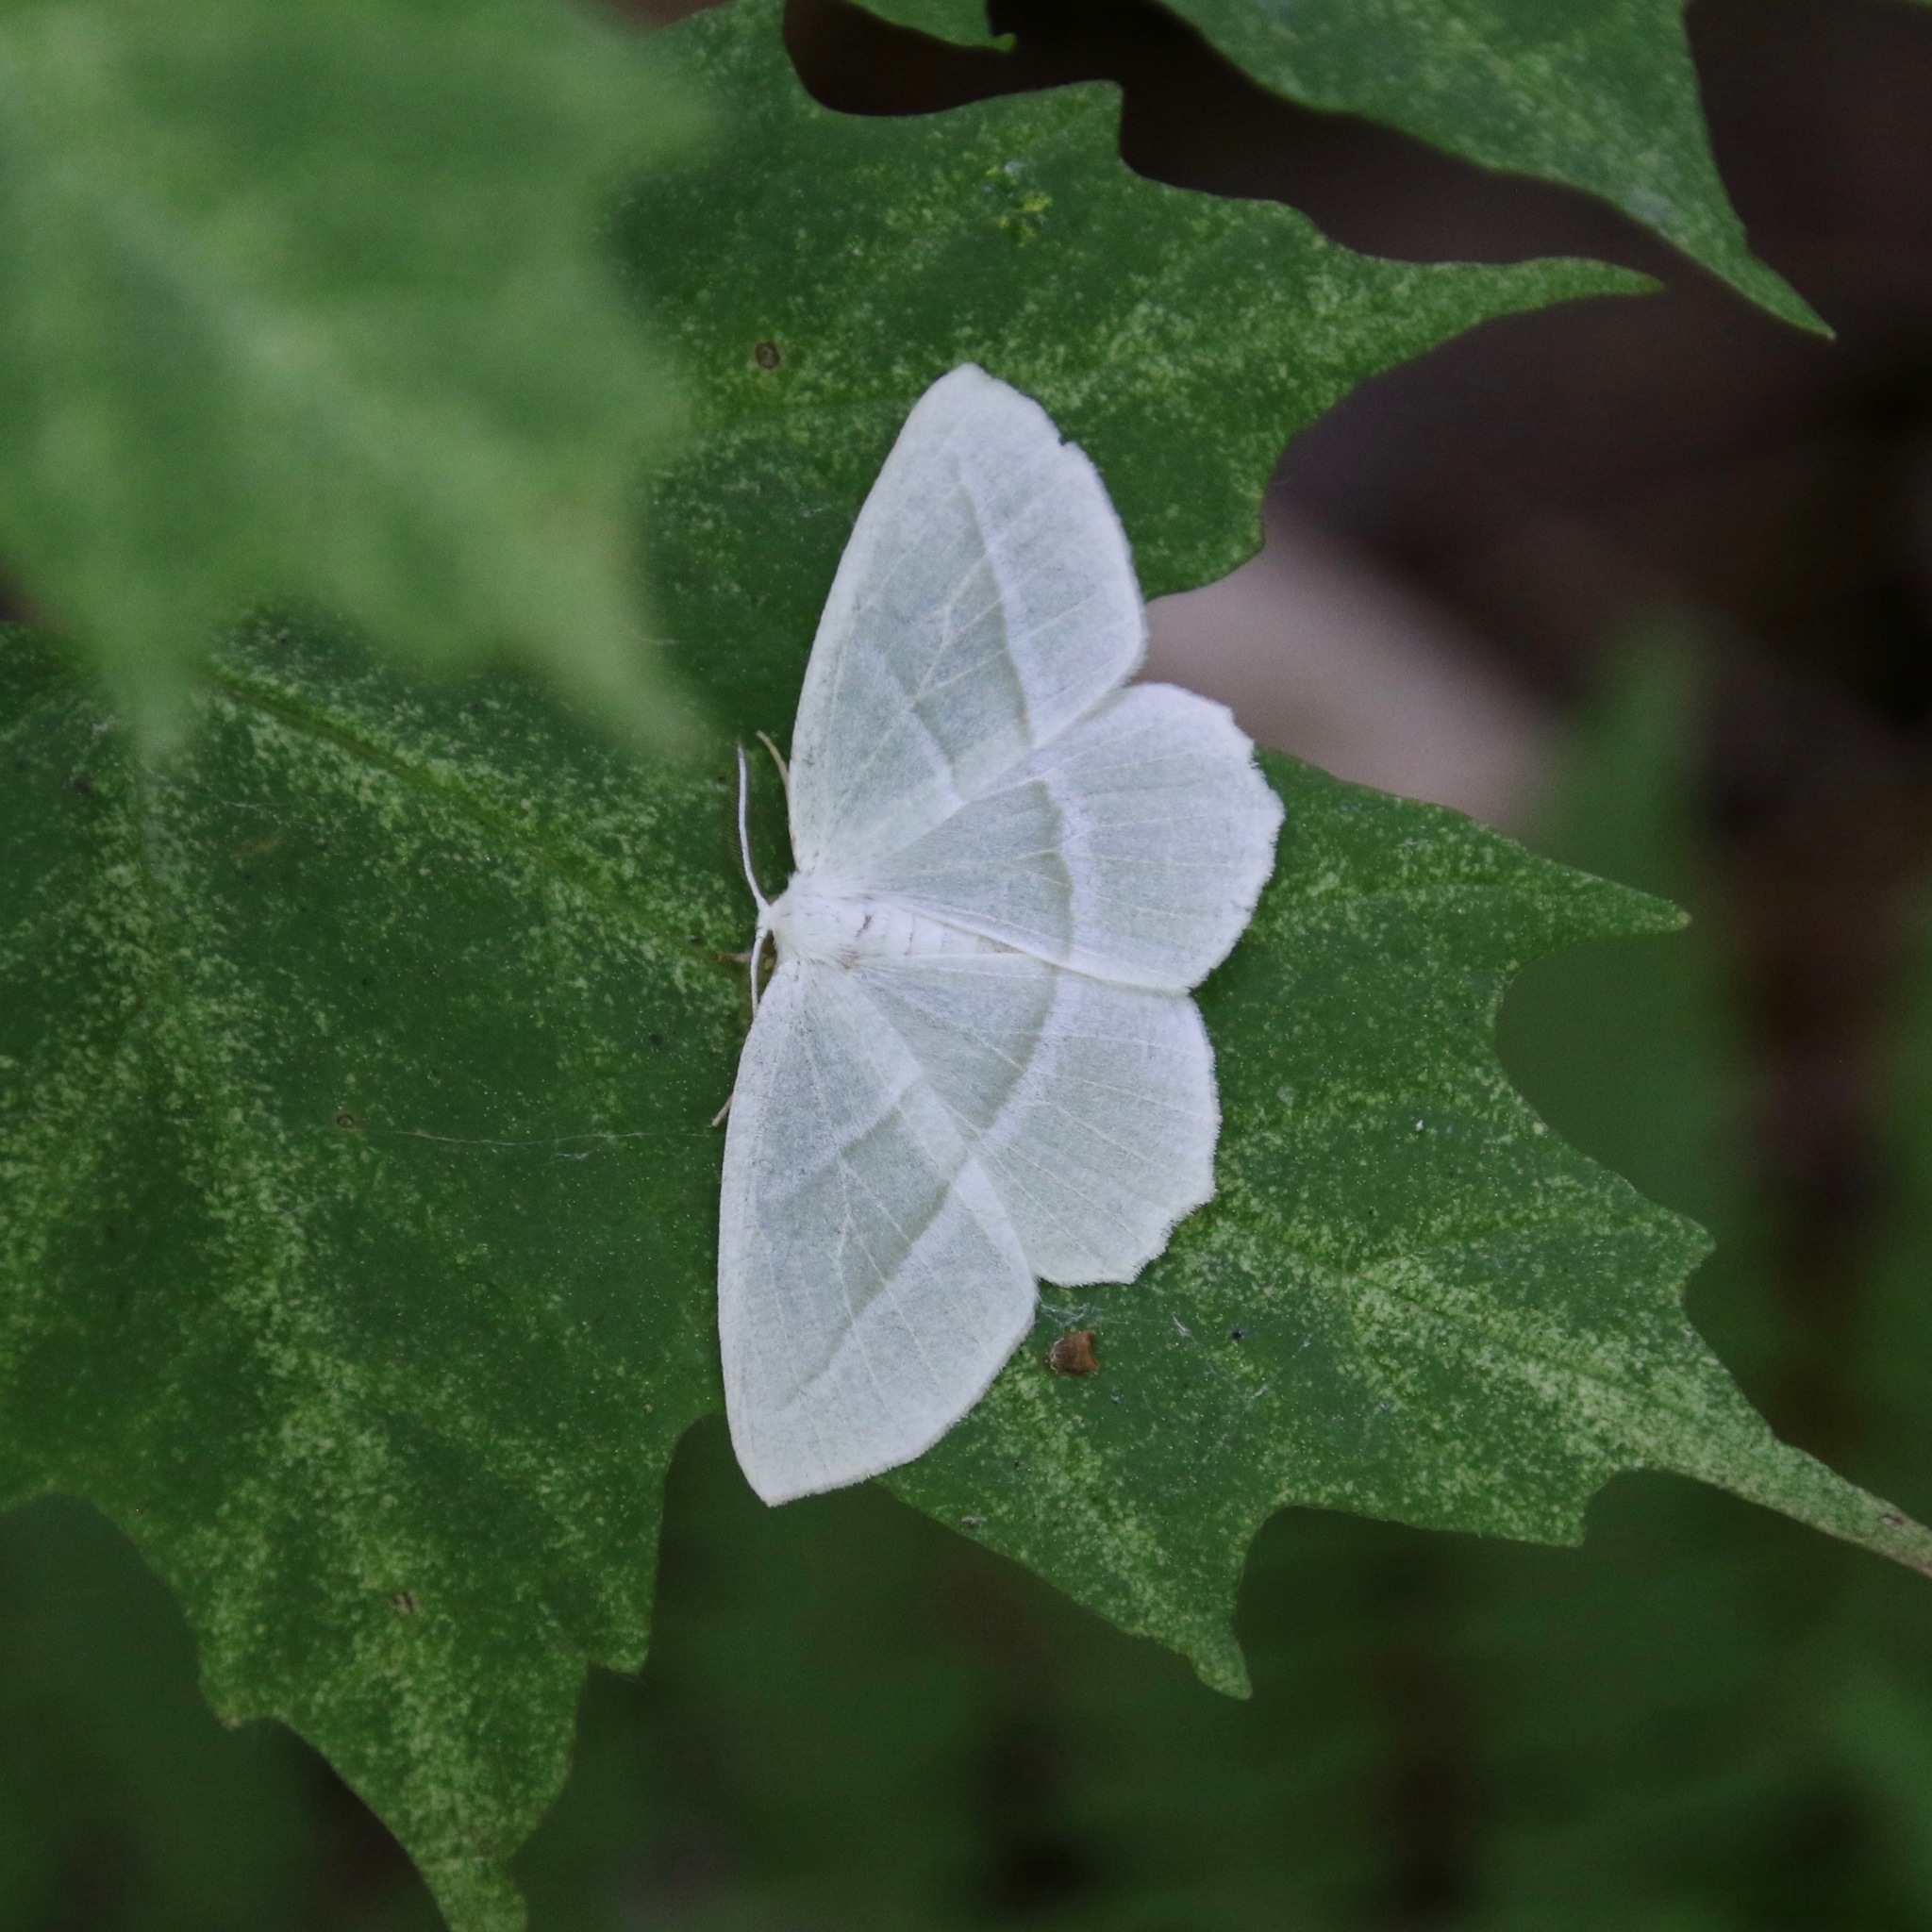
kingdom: Animalia
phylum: Arthropoda
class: Insecta
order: Lepidoptera
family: Geometridae
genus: Campaea
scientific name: Campaea perlata
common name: Fringed looper
